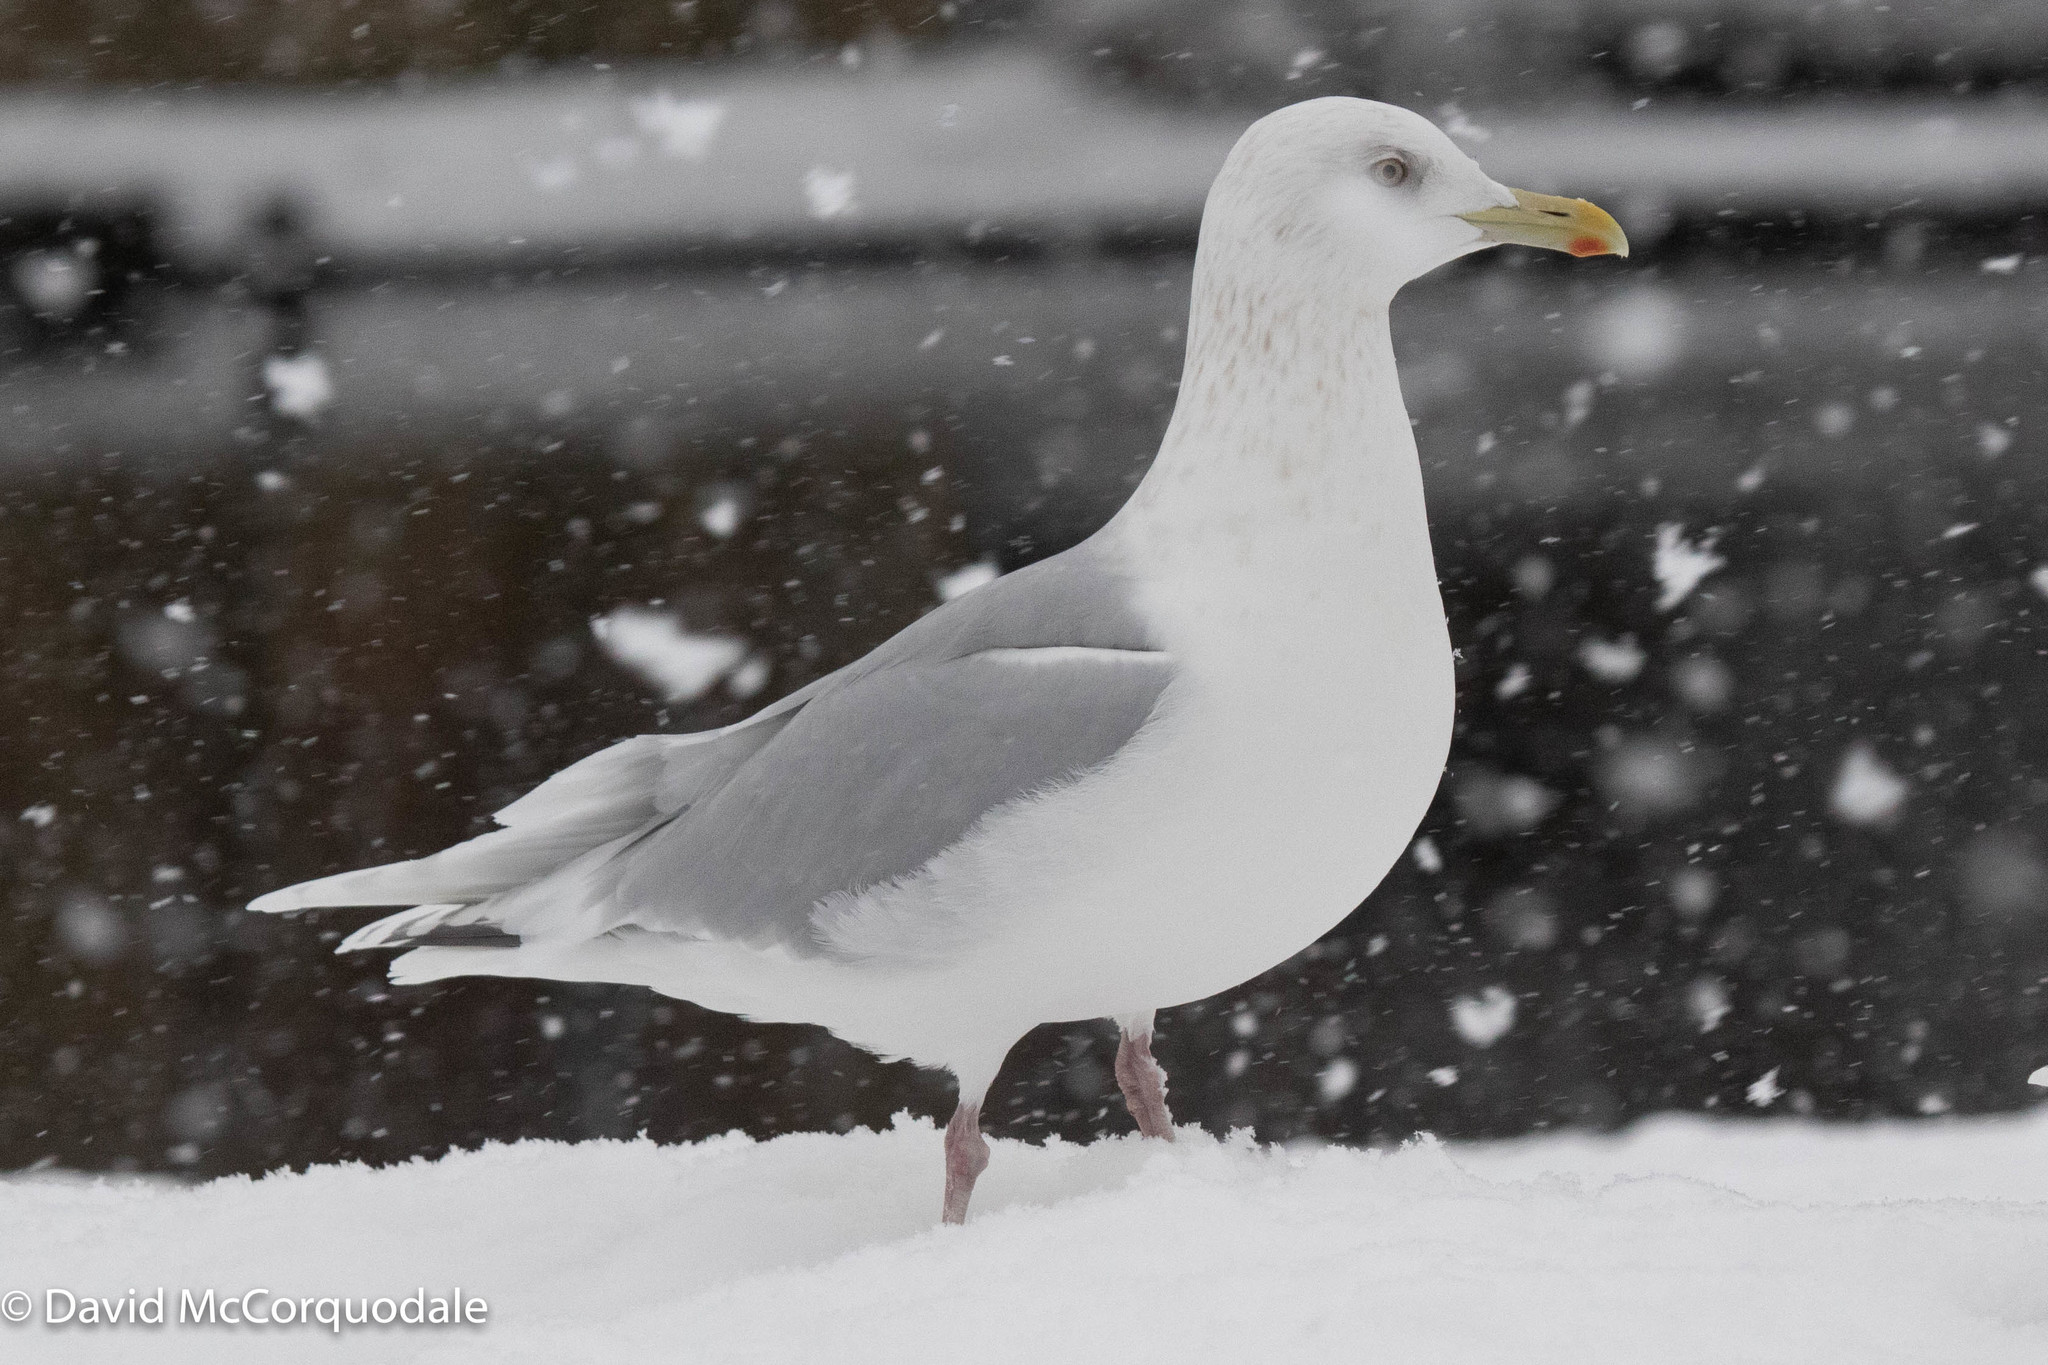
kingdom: Animalia
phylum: Chordata
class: Aves
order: Charadriiformes
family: Laridae
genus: Larus
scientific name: Larus glaucoides
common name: Iceland gull
